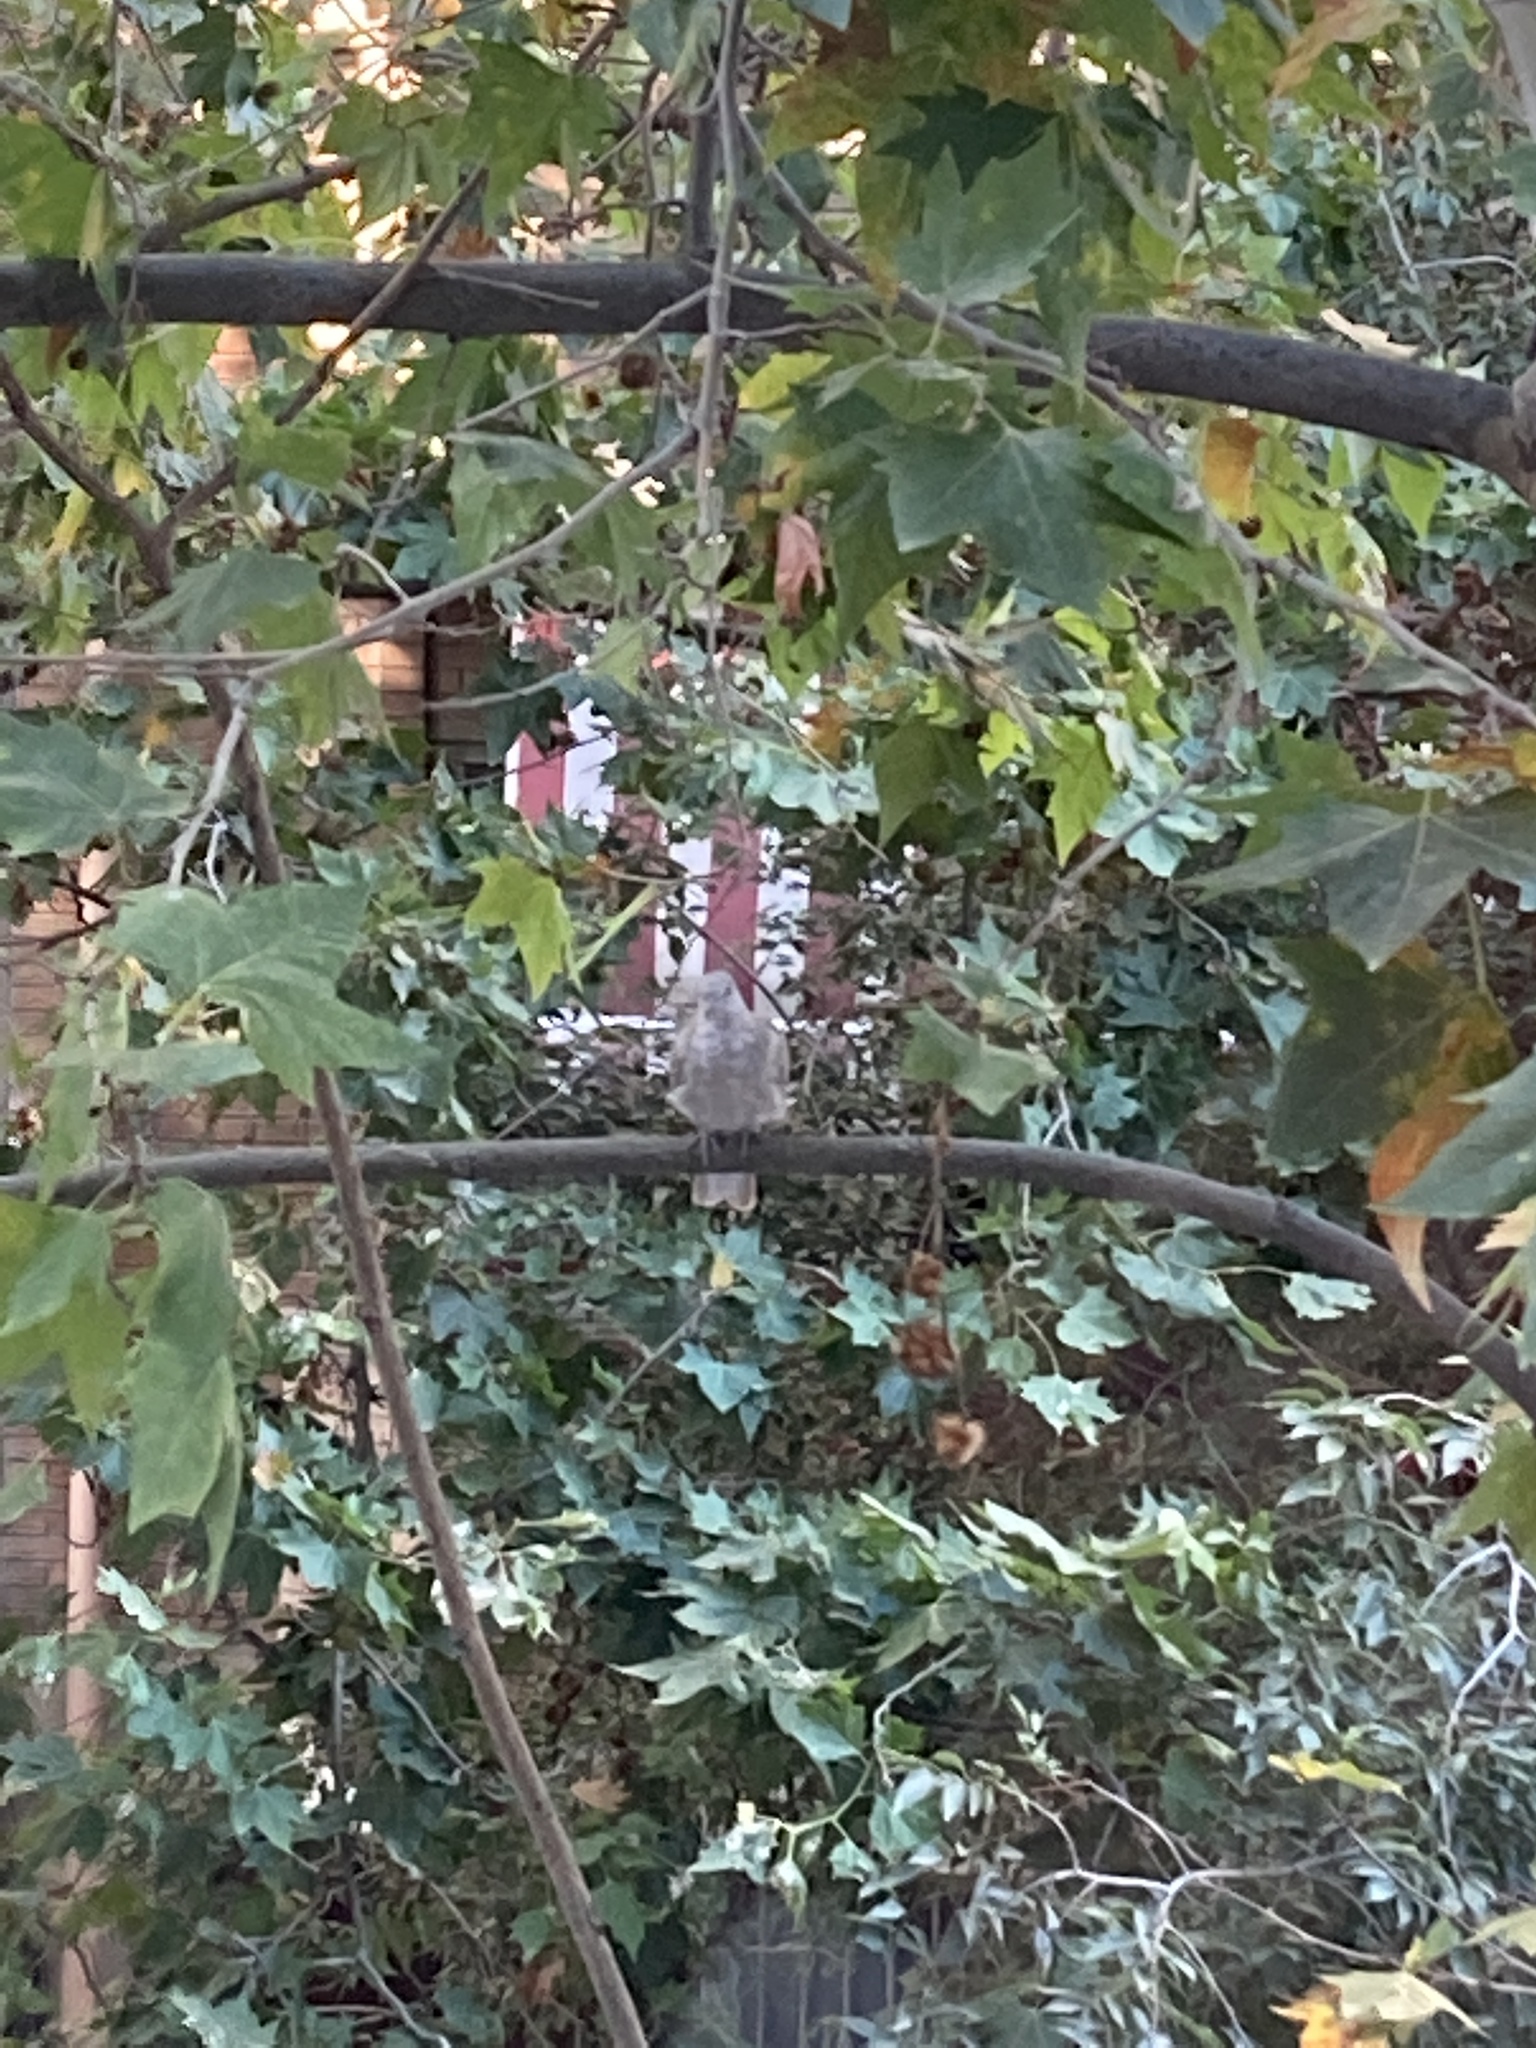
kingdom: Animalia
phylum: Chordata
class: Aves
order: Columbiformes
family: Columbidae
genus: Streptopelia
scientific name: Streptopelia decaocto
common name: Eurasian collared dove
